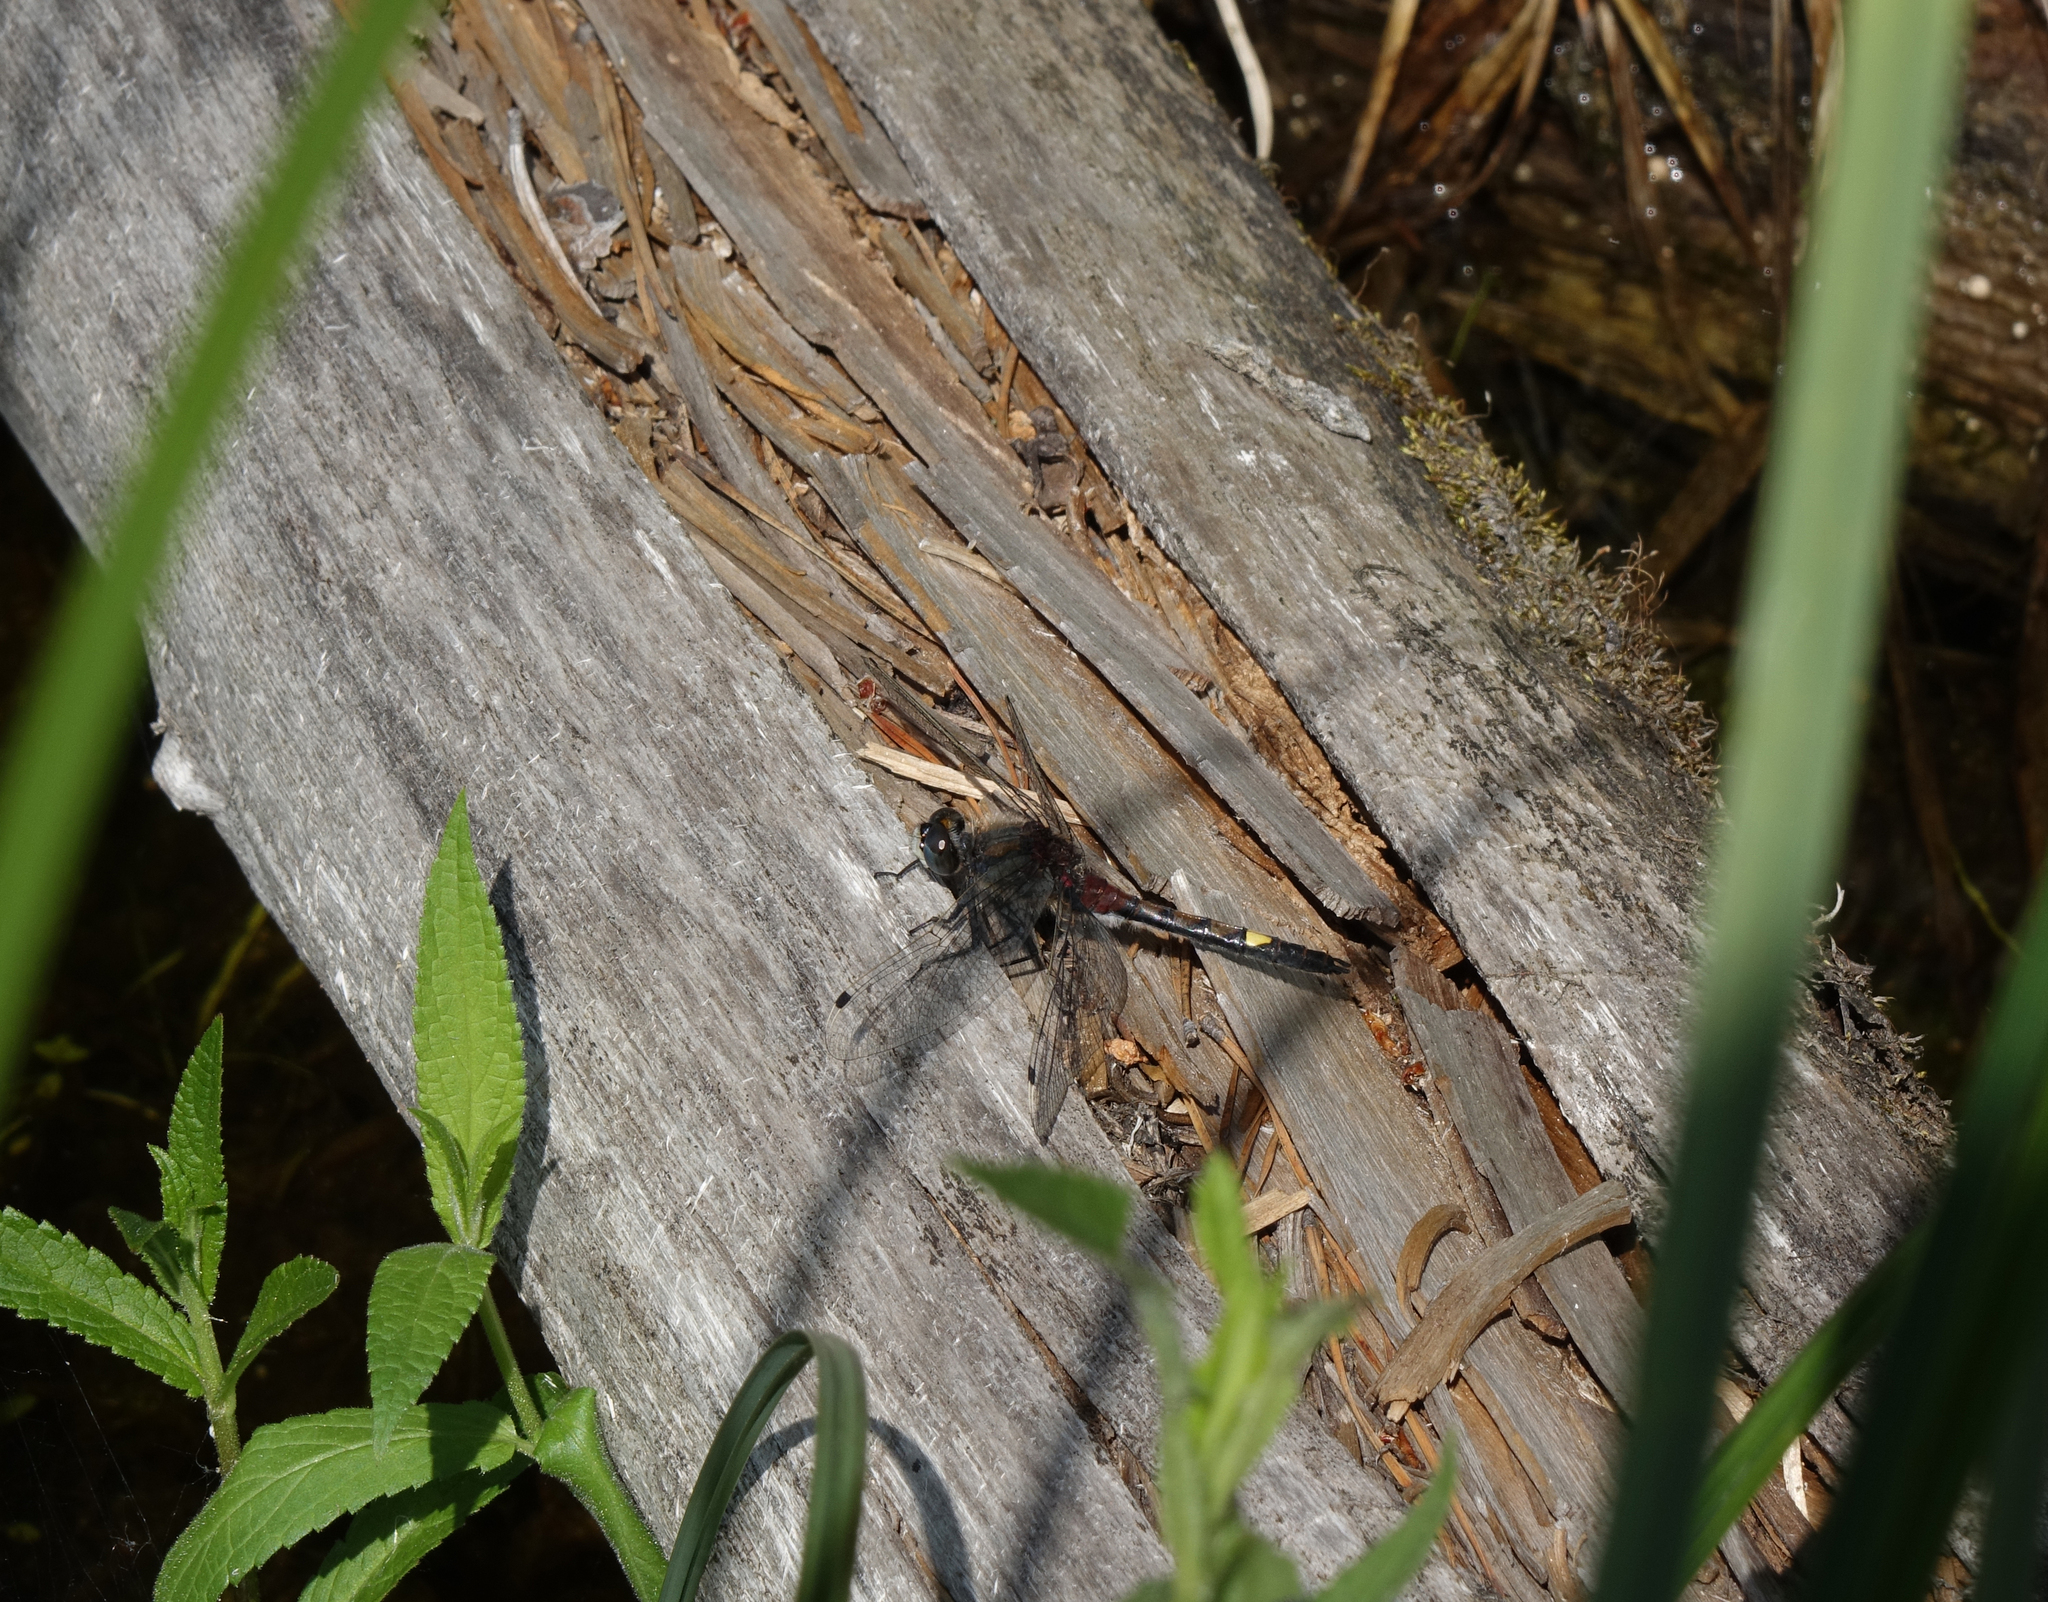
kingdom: Animalia
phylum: Arthropoda
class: Insecta
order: Odonata
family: Libellulidae
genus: Leucorrhinia
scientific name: Leucorrhinia pectoralis
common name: Yellow-spotted whiteface
